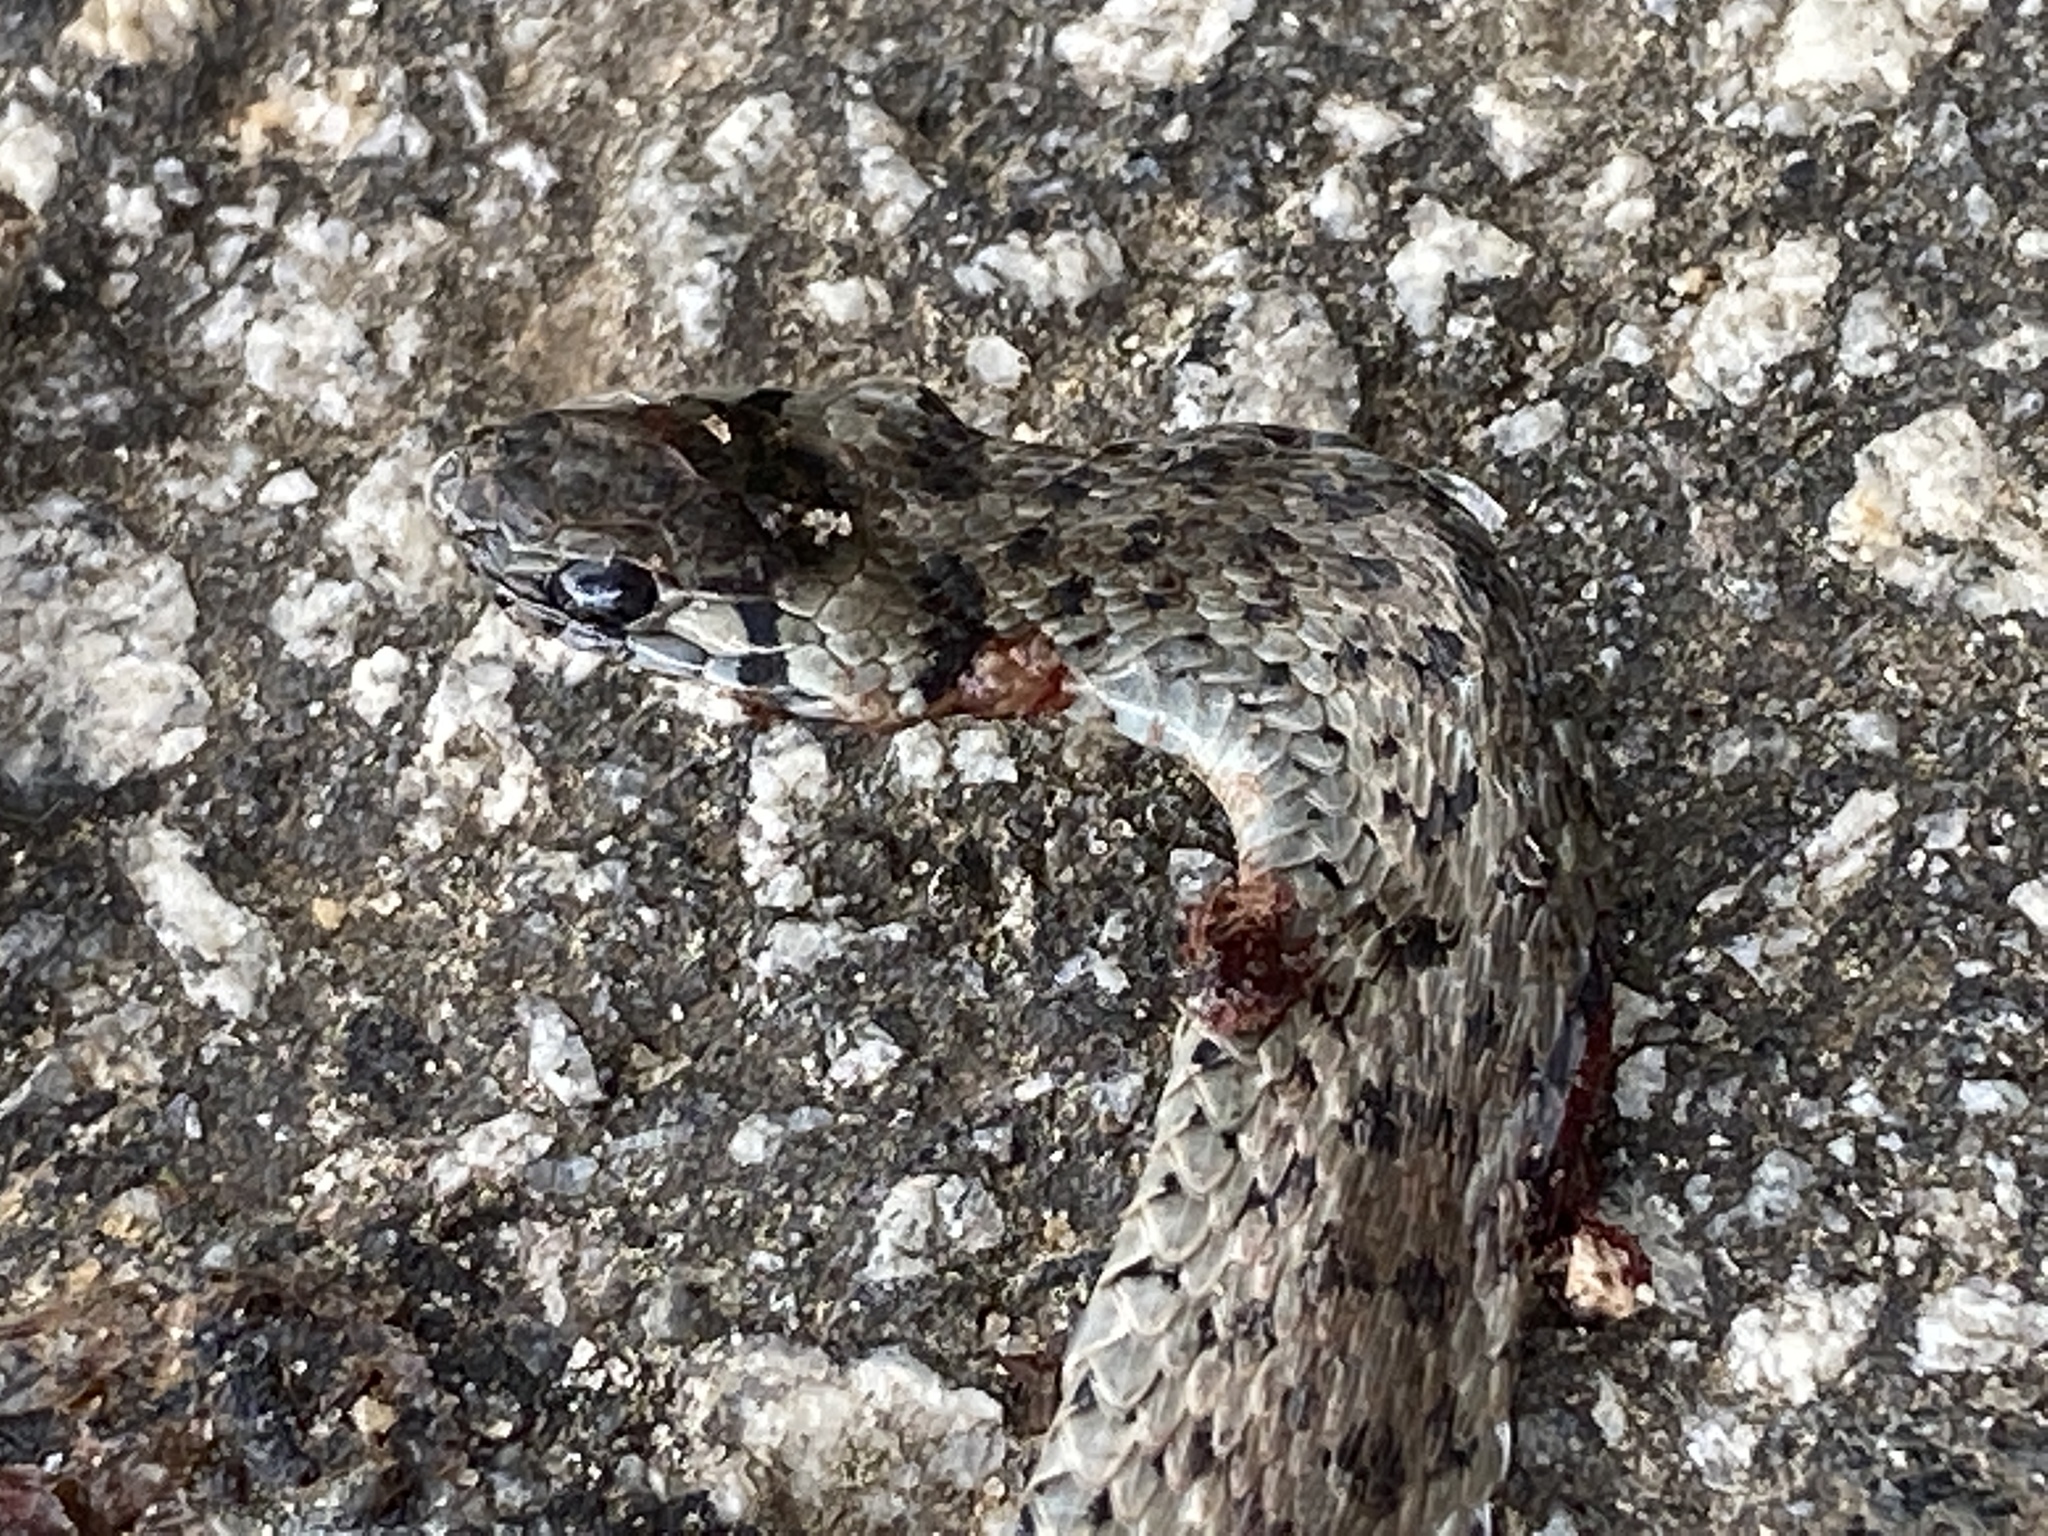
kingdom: Animalia
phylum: Chordata
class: Squamata
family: Colubridae
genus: Storeria
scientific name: Storeria dekayi
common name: (dekay’s) brown snake
